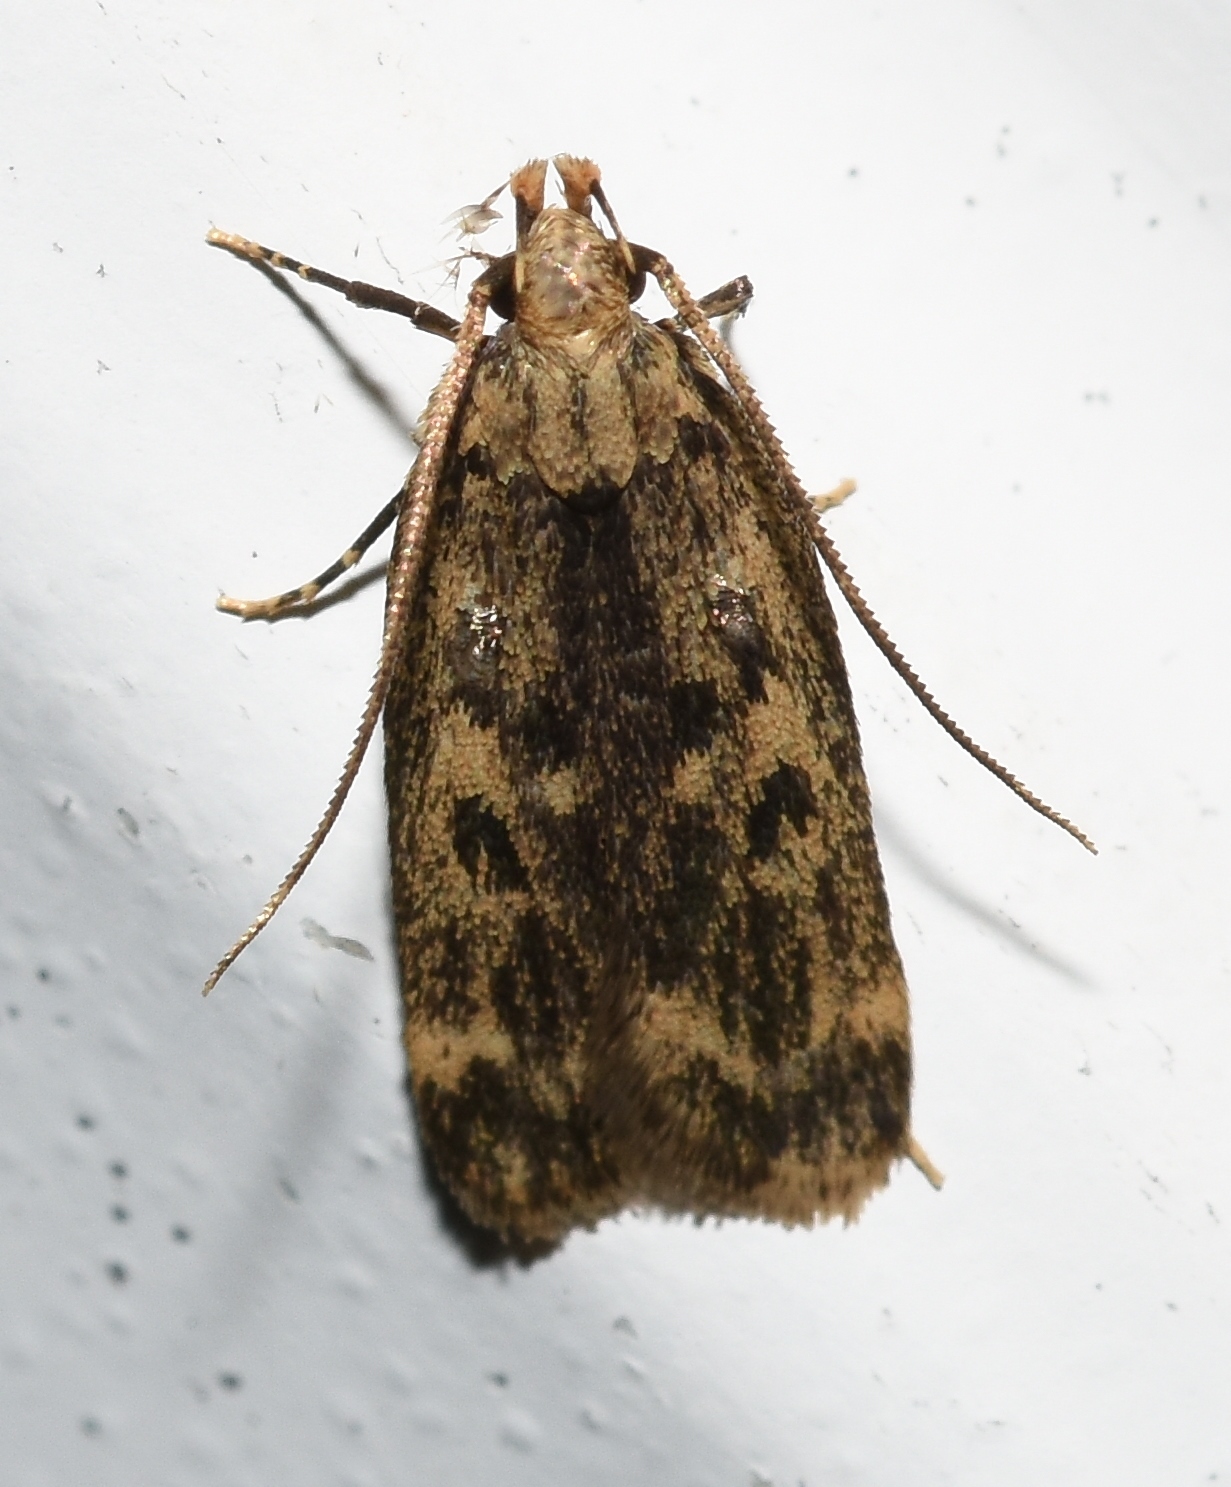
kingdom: Animalia
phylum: Arthropoda
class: Insecta
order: Lepidoptera
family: Lecithoceridae
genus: Martyringa
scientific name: Martyringa latipennis
